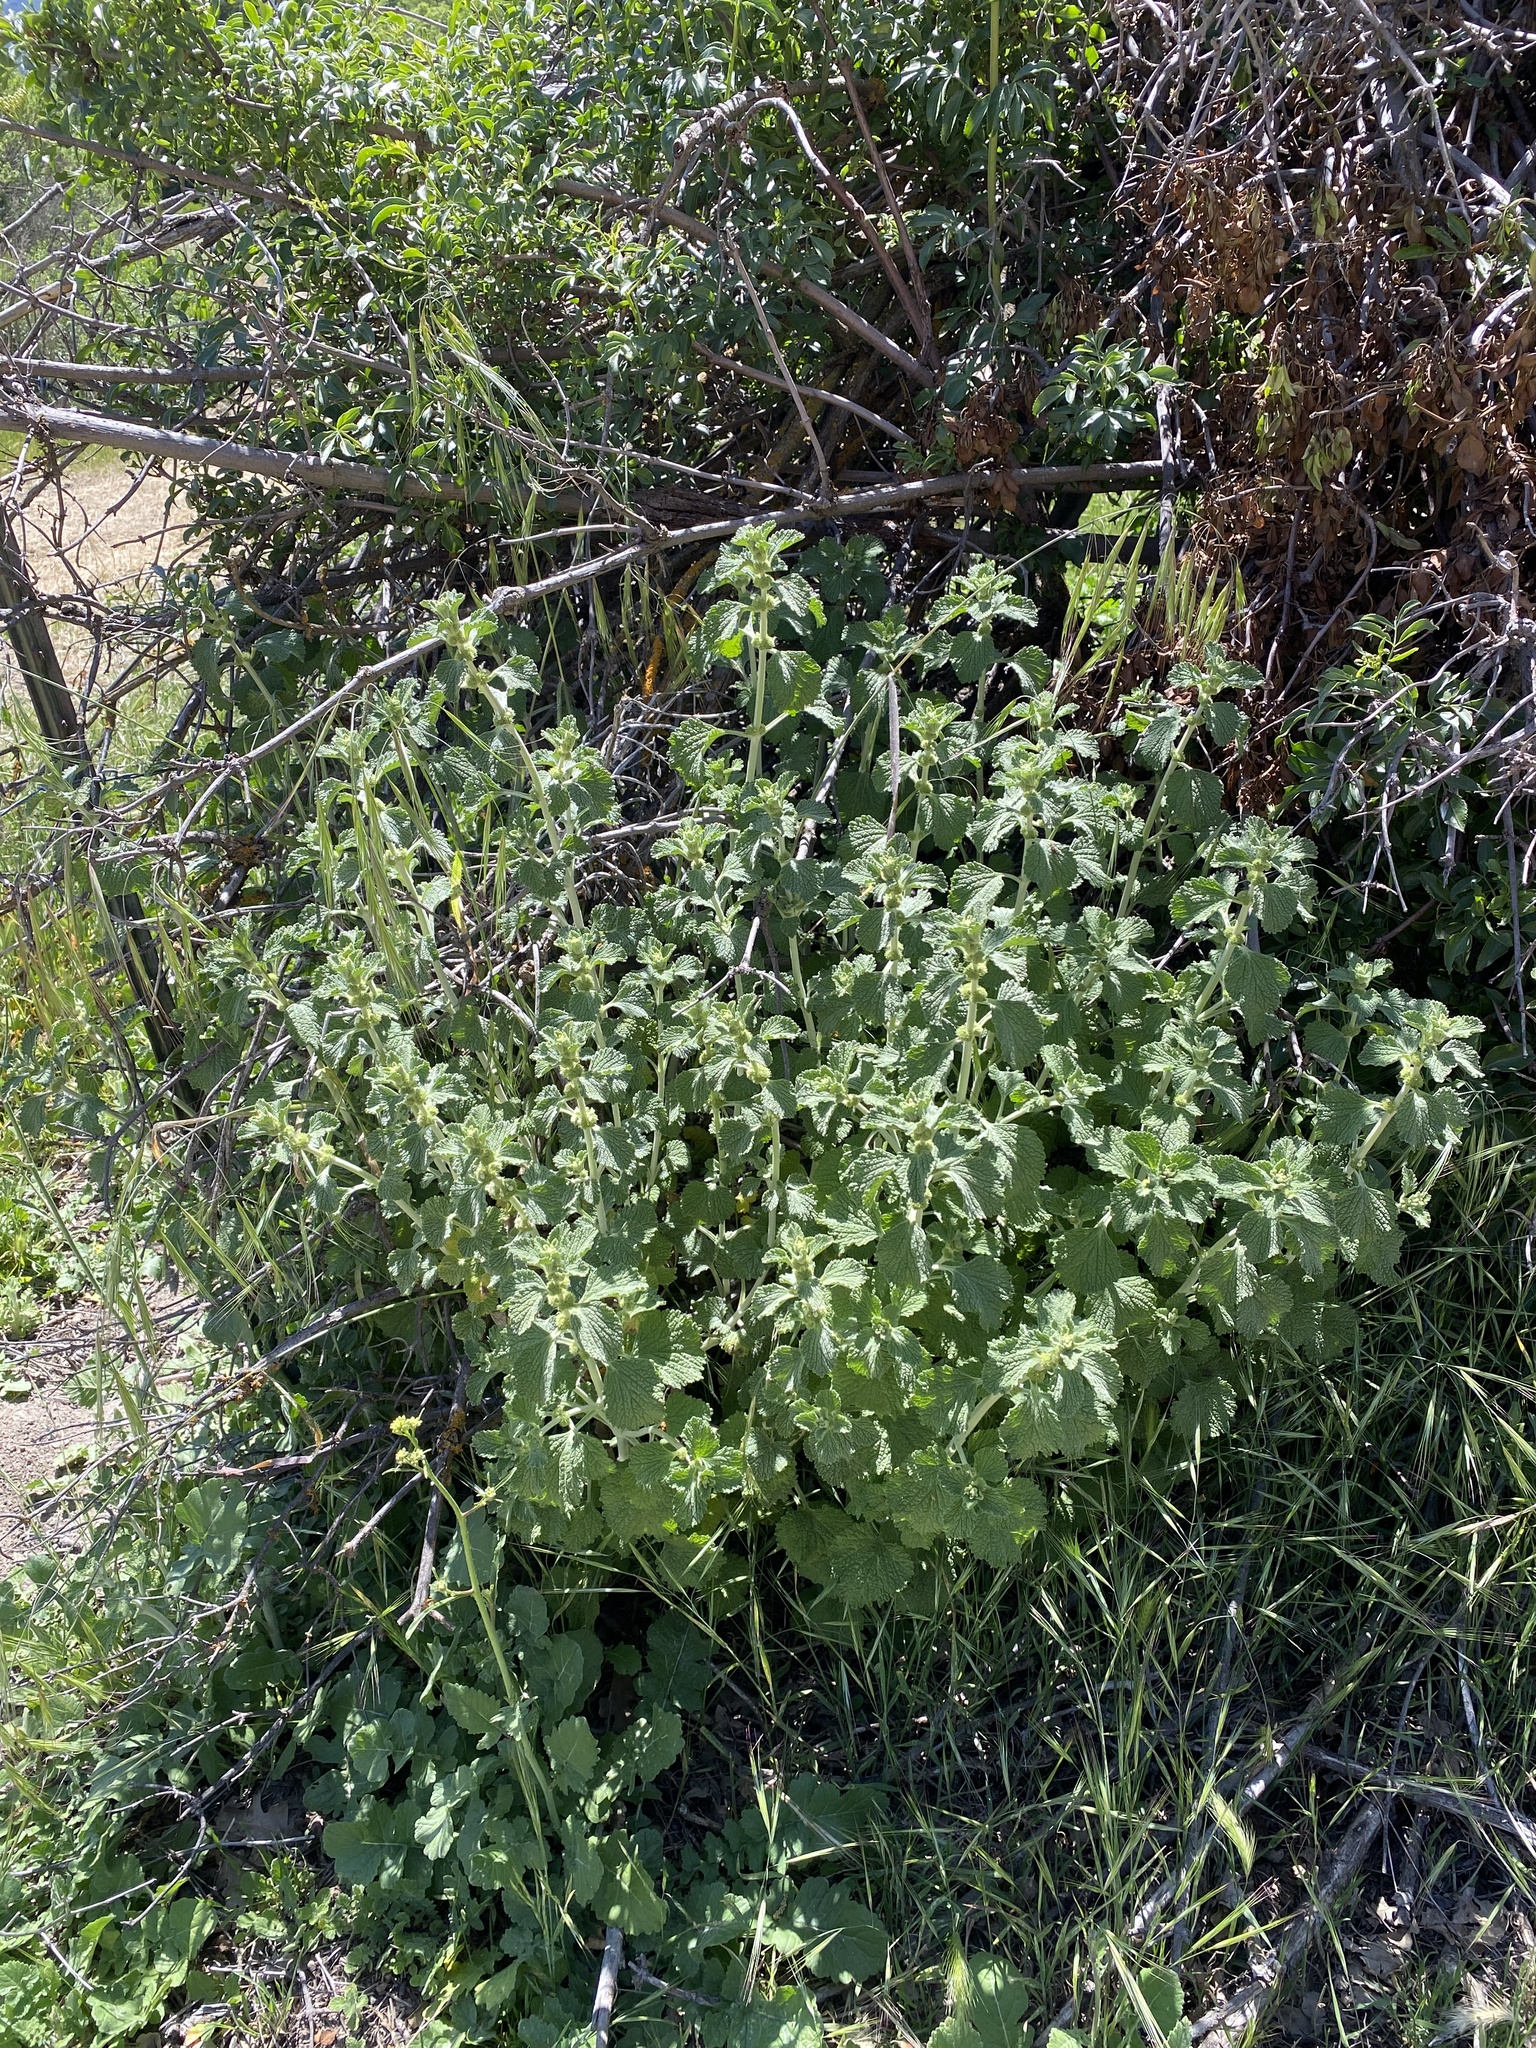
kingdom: Plantae
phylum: Tracheophyta
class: Magnoliopsida
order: Lamiales
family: Lamiaceae
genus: Marrubium
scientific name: Marrubium vulgare
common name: Horehound
